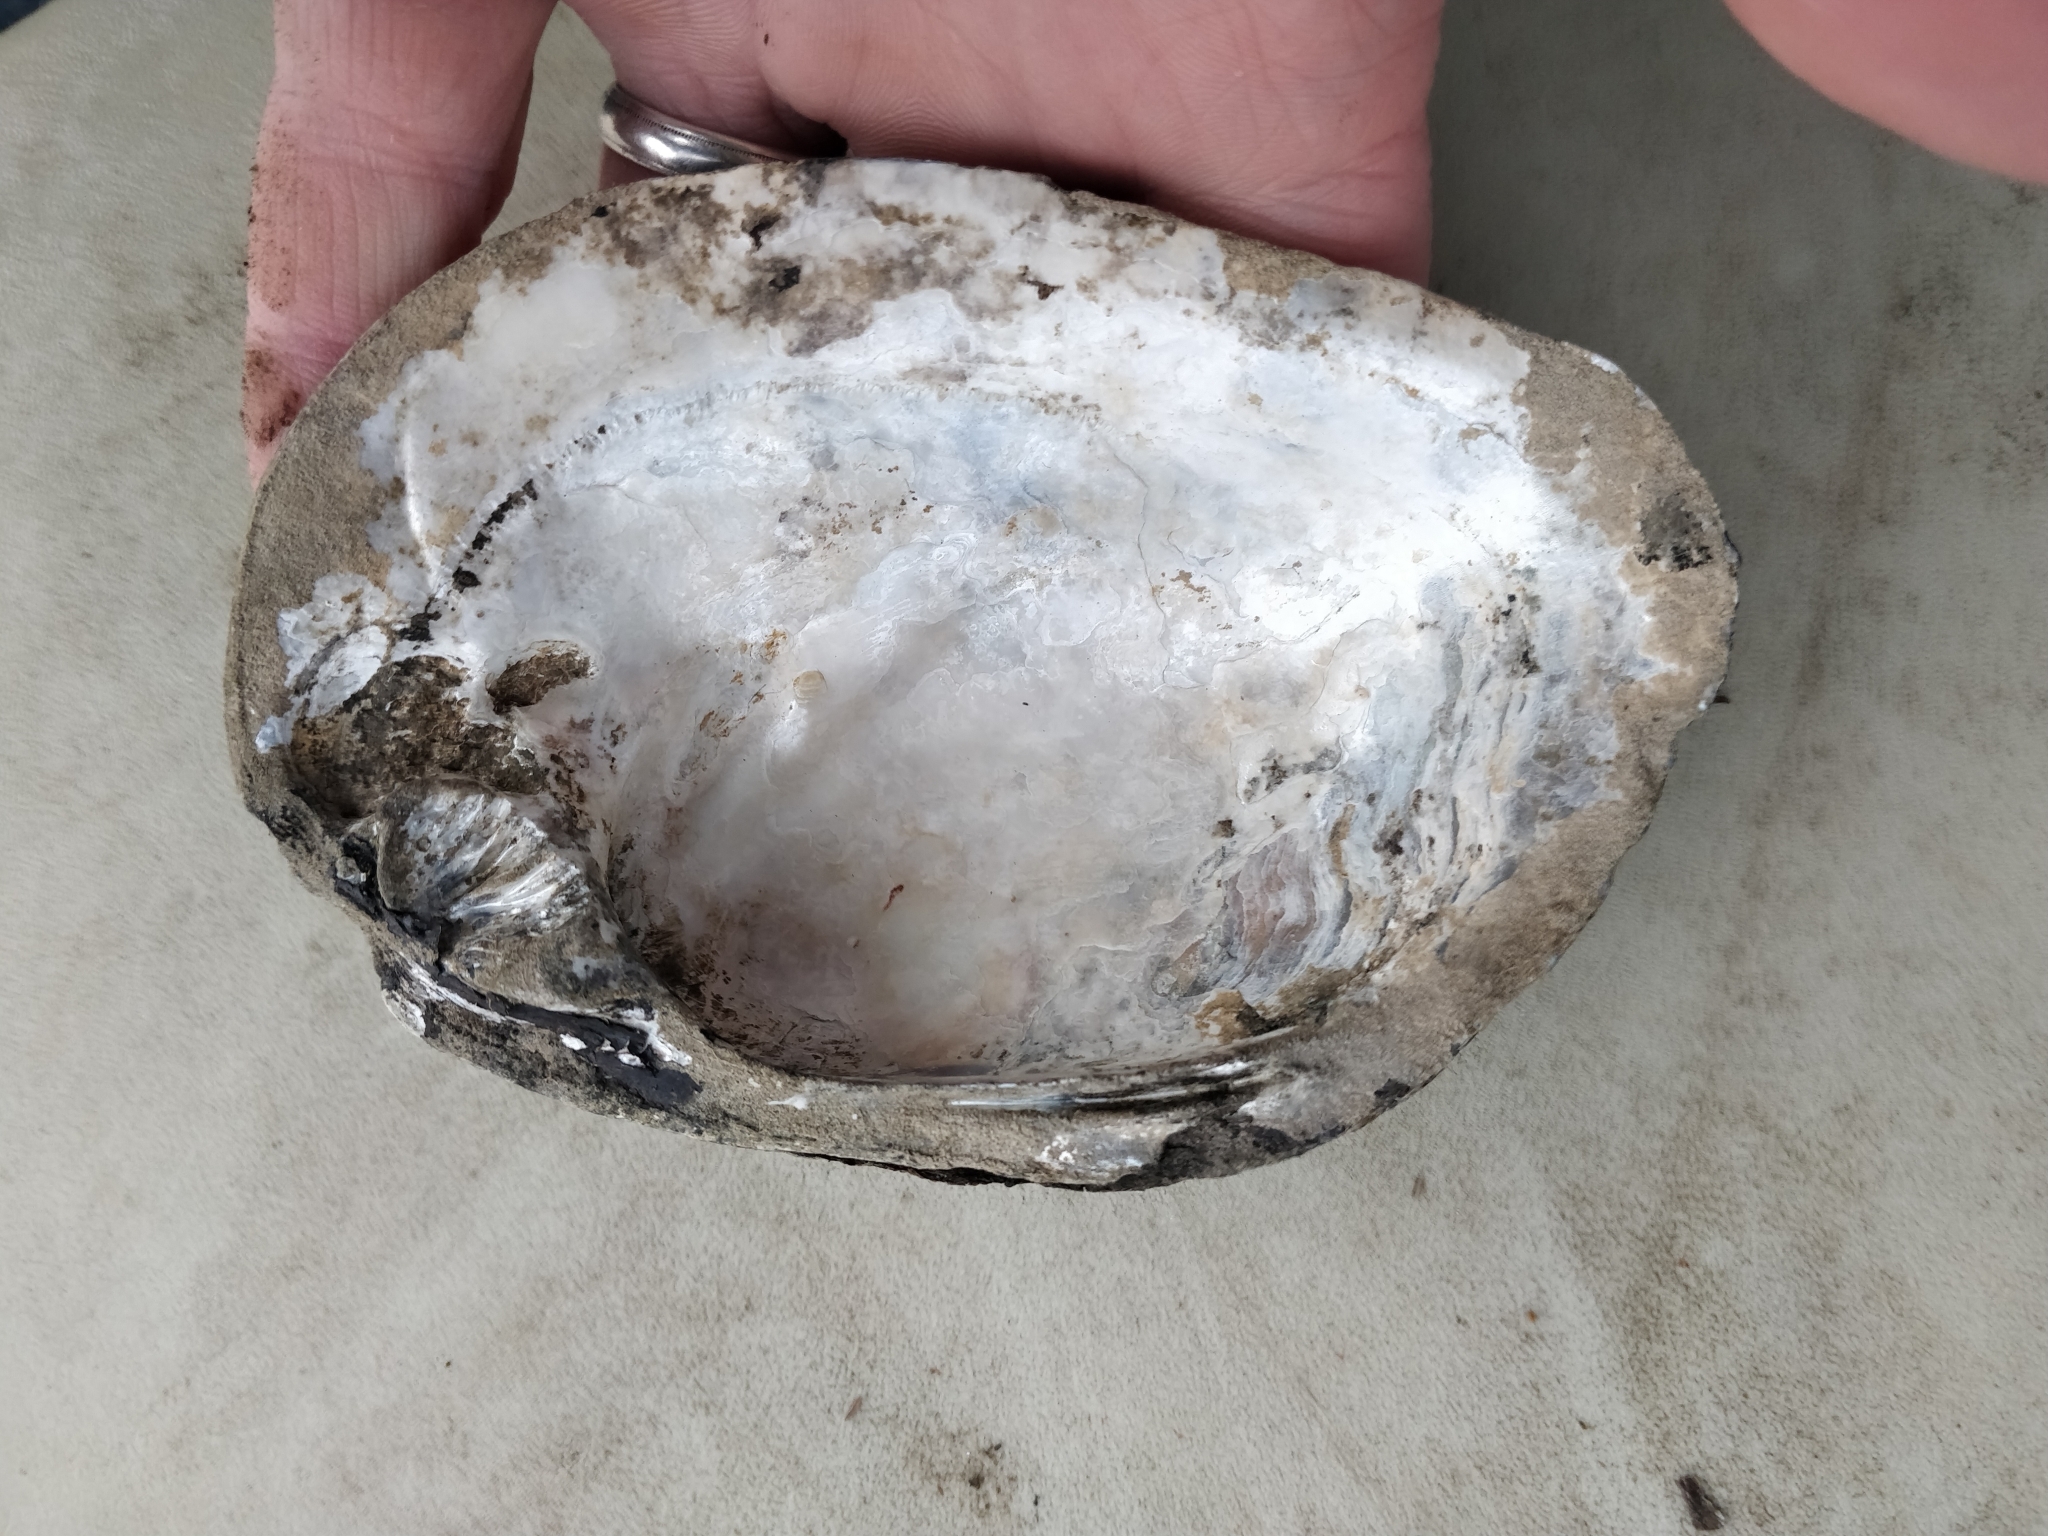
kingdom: Animalia
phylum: Mollusca
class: Bivalvia
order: Unionida
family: Unionidae
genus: Amblema
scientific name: Amblema plicata
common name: Threeridge
